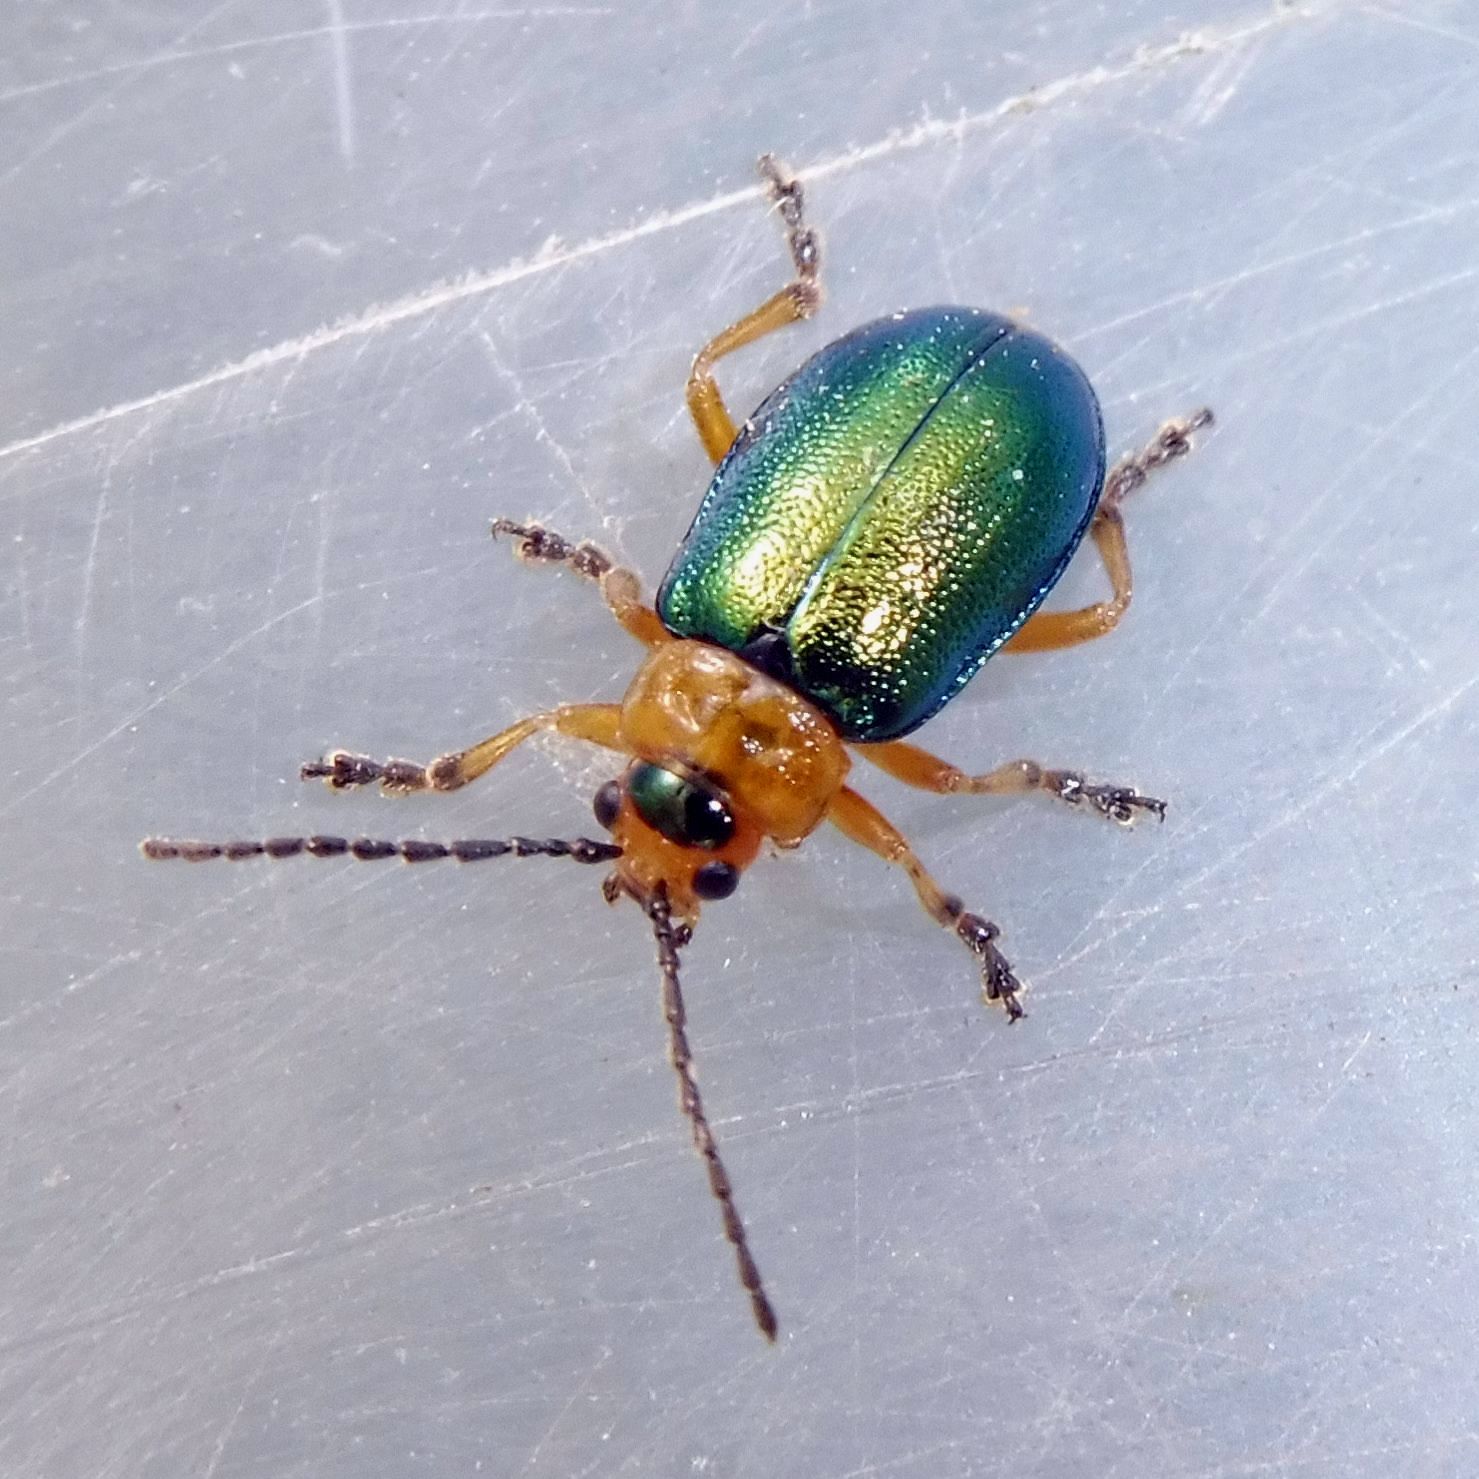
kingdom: Animalia
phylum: Arthropoda
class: Insecta
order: Coleoptera
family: Chrysomelidae
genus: Sermylassa
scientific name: Sermylassa halensis
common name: Leaf beetle
